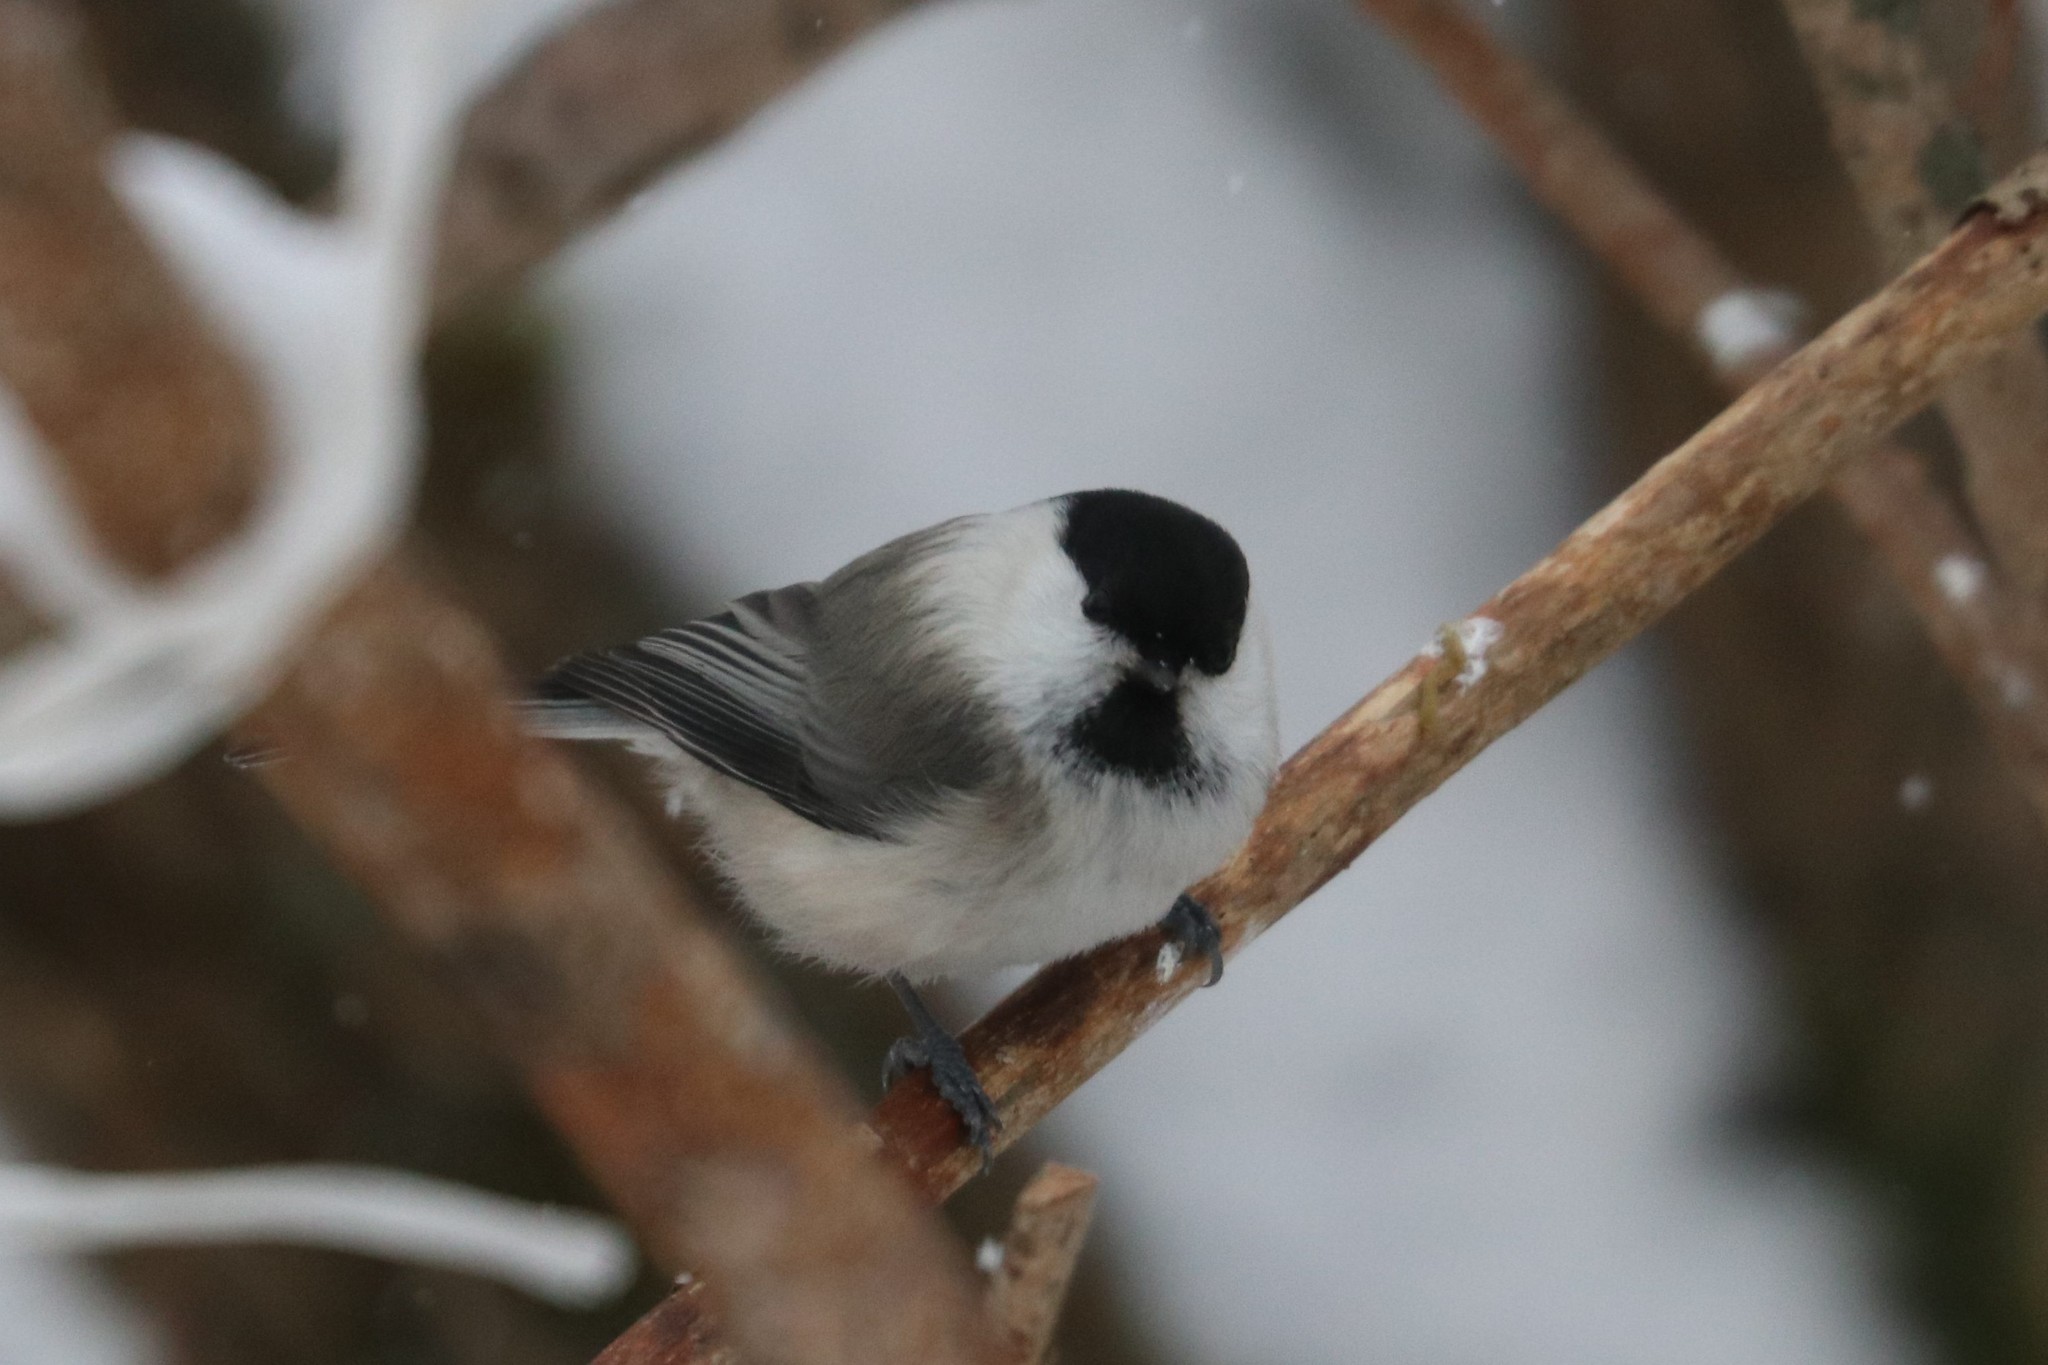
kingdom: Animalia
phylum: Chordata
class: Aves
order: Passeriformes
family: Paridae
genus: Poecile
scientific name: Poecile montanus
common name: Willow tit
